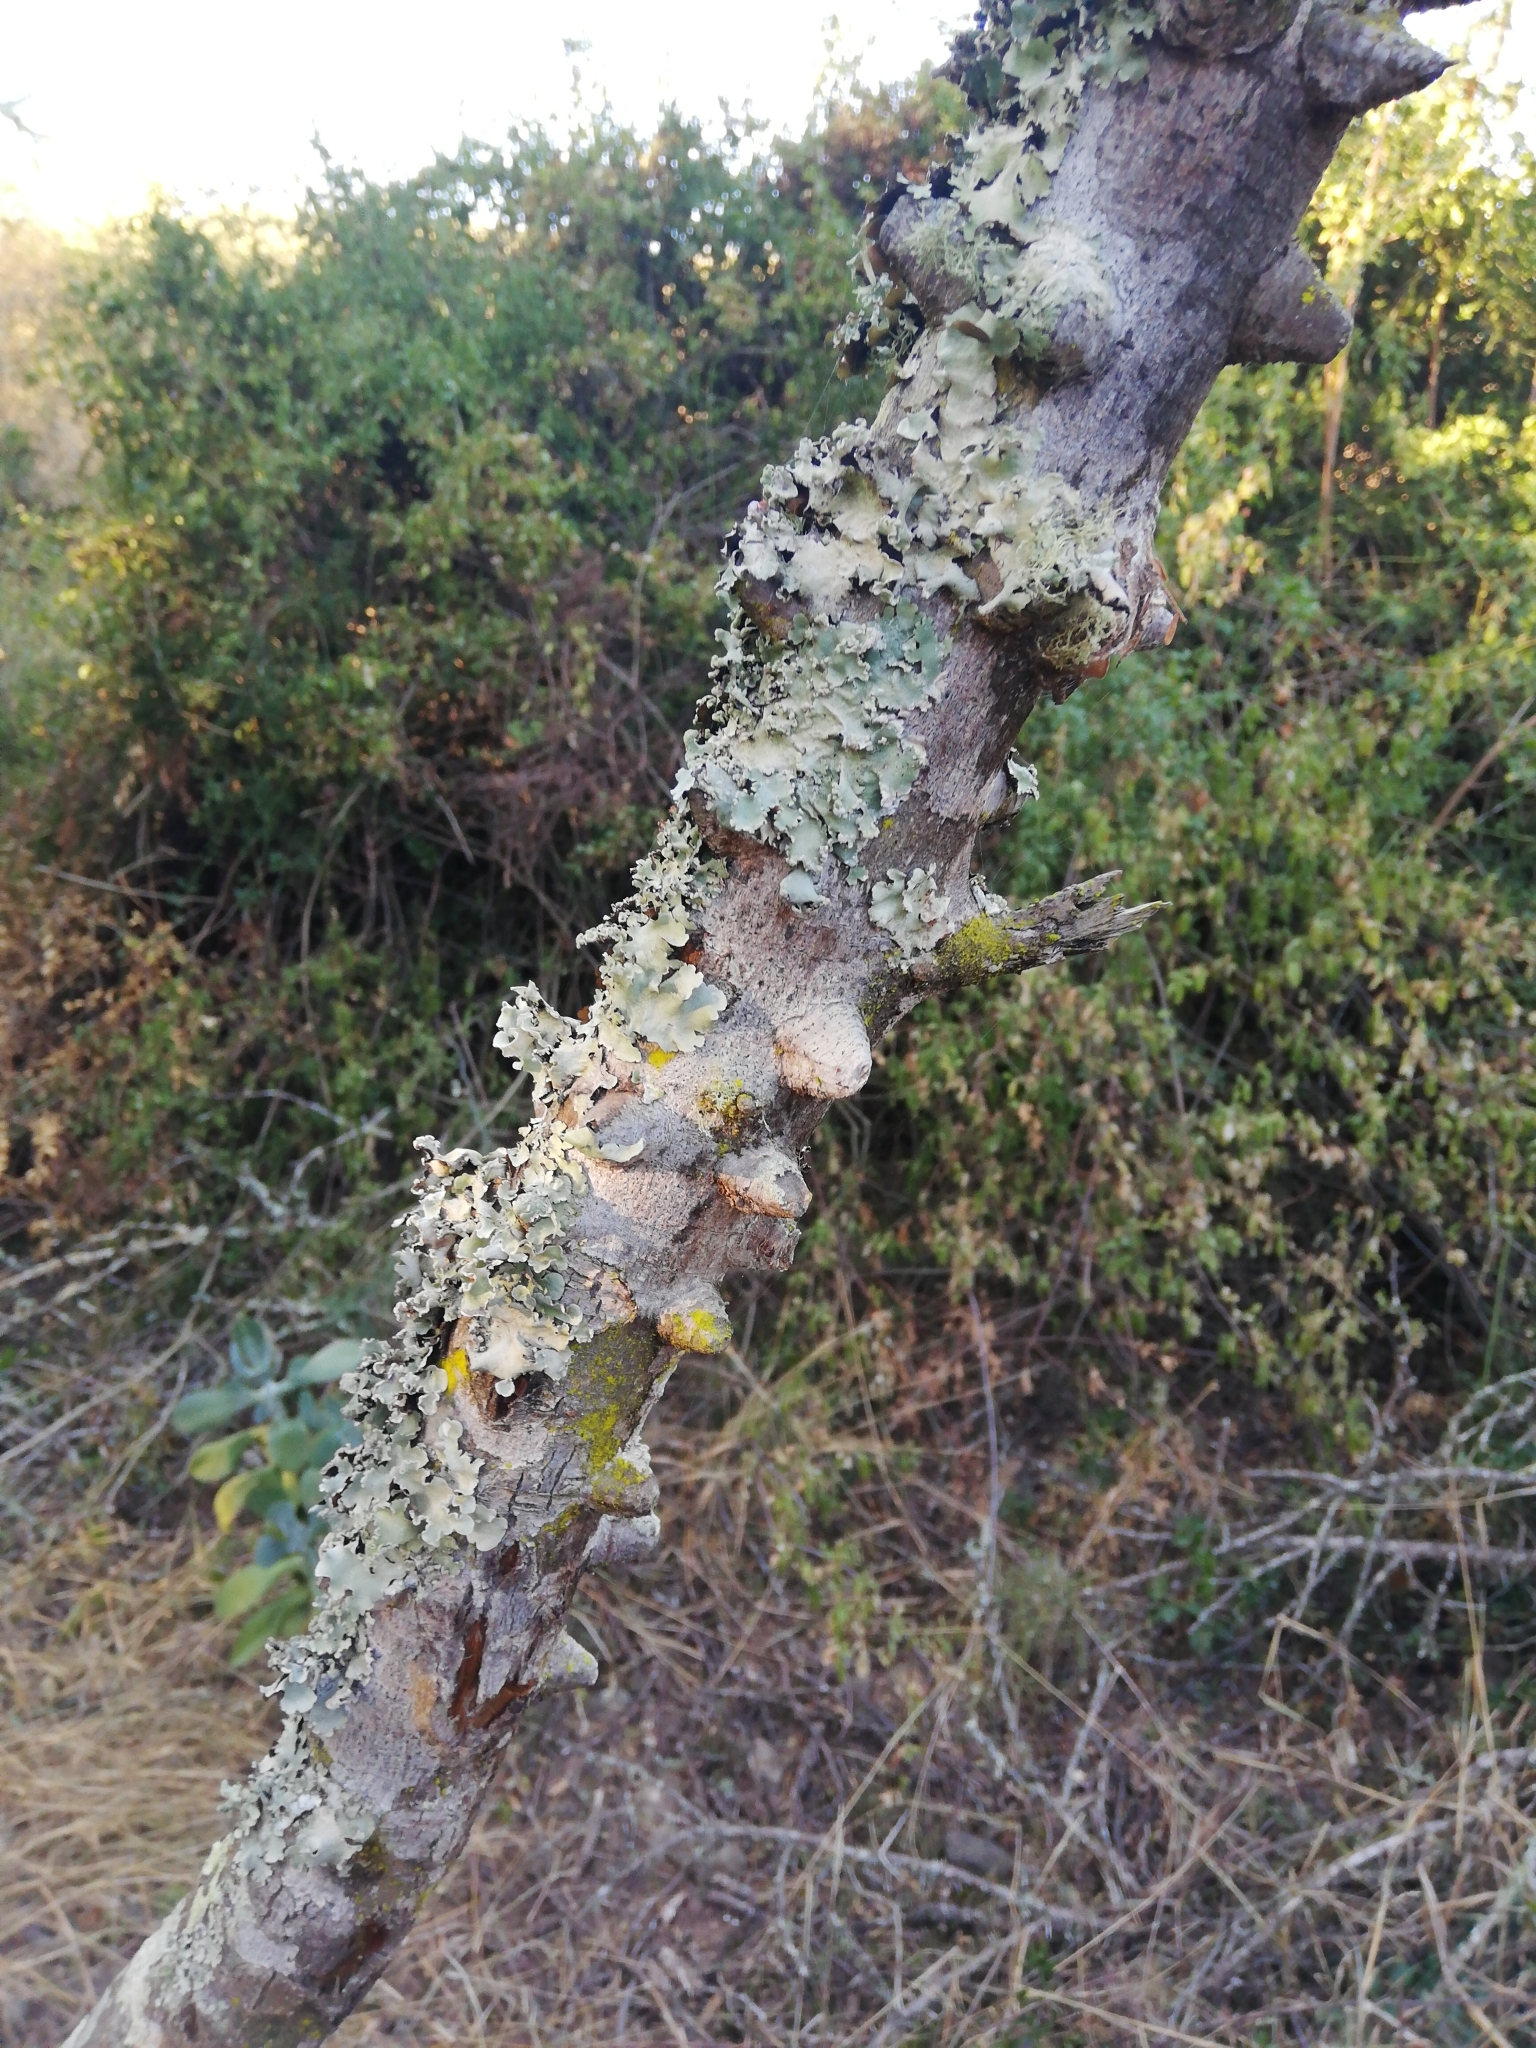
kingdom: Plantae
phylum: Tracheophyta
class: Magnoliopsida
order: Sapindales
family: Rutaceae
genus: Zanthoxylum
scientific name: Zanthoxylum capense
